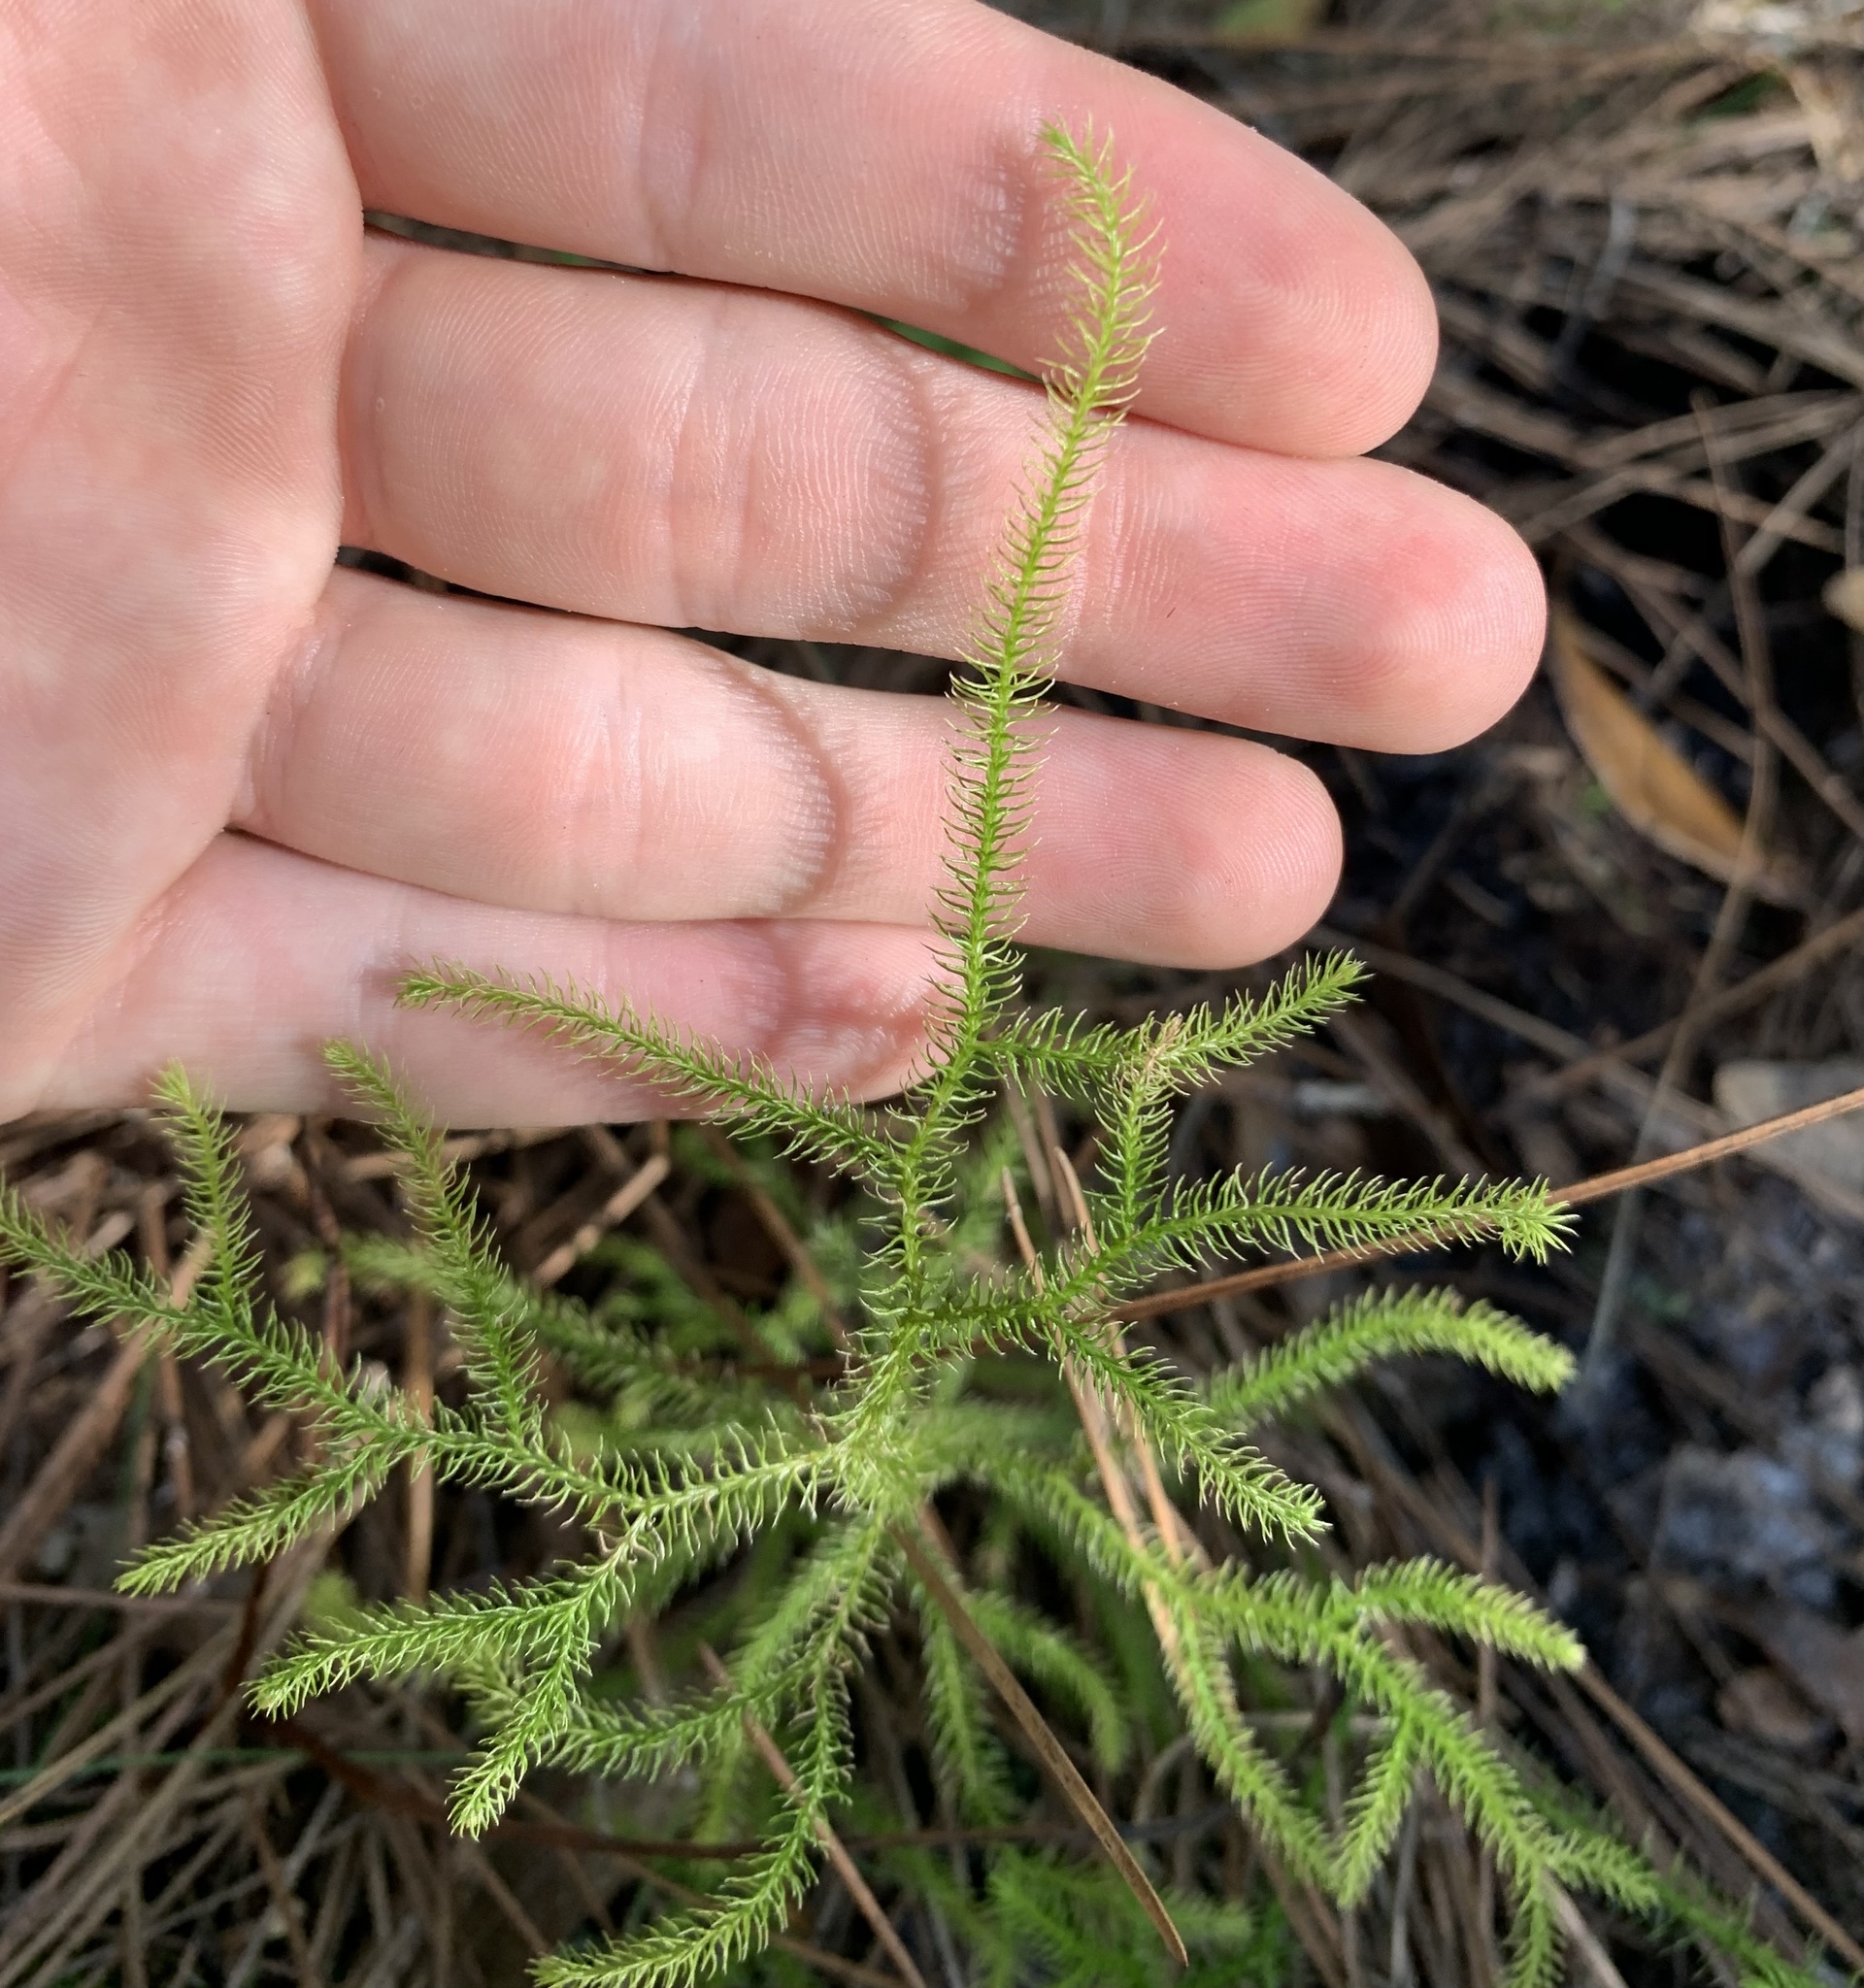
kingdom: Plantae
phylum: Tracheophyta
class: Lycopodiopsida
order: Lycopodiales
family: Lycopodiaceae
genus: Palhinhaea
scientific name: Palhinhaea cernua
